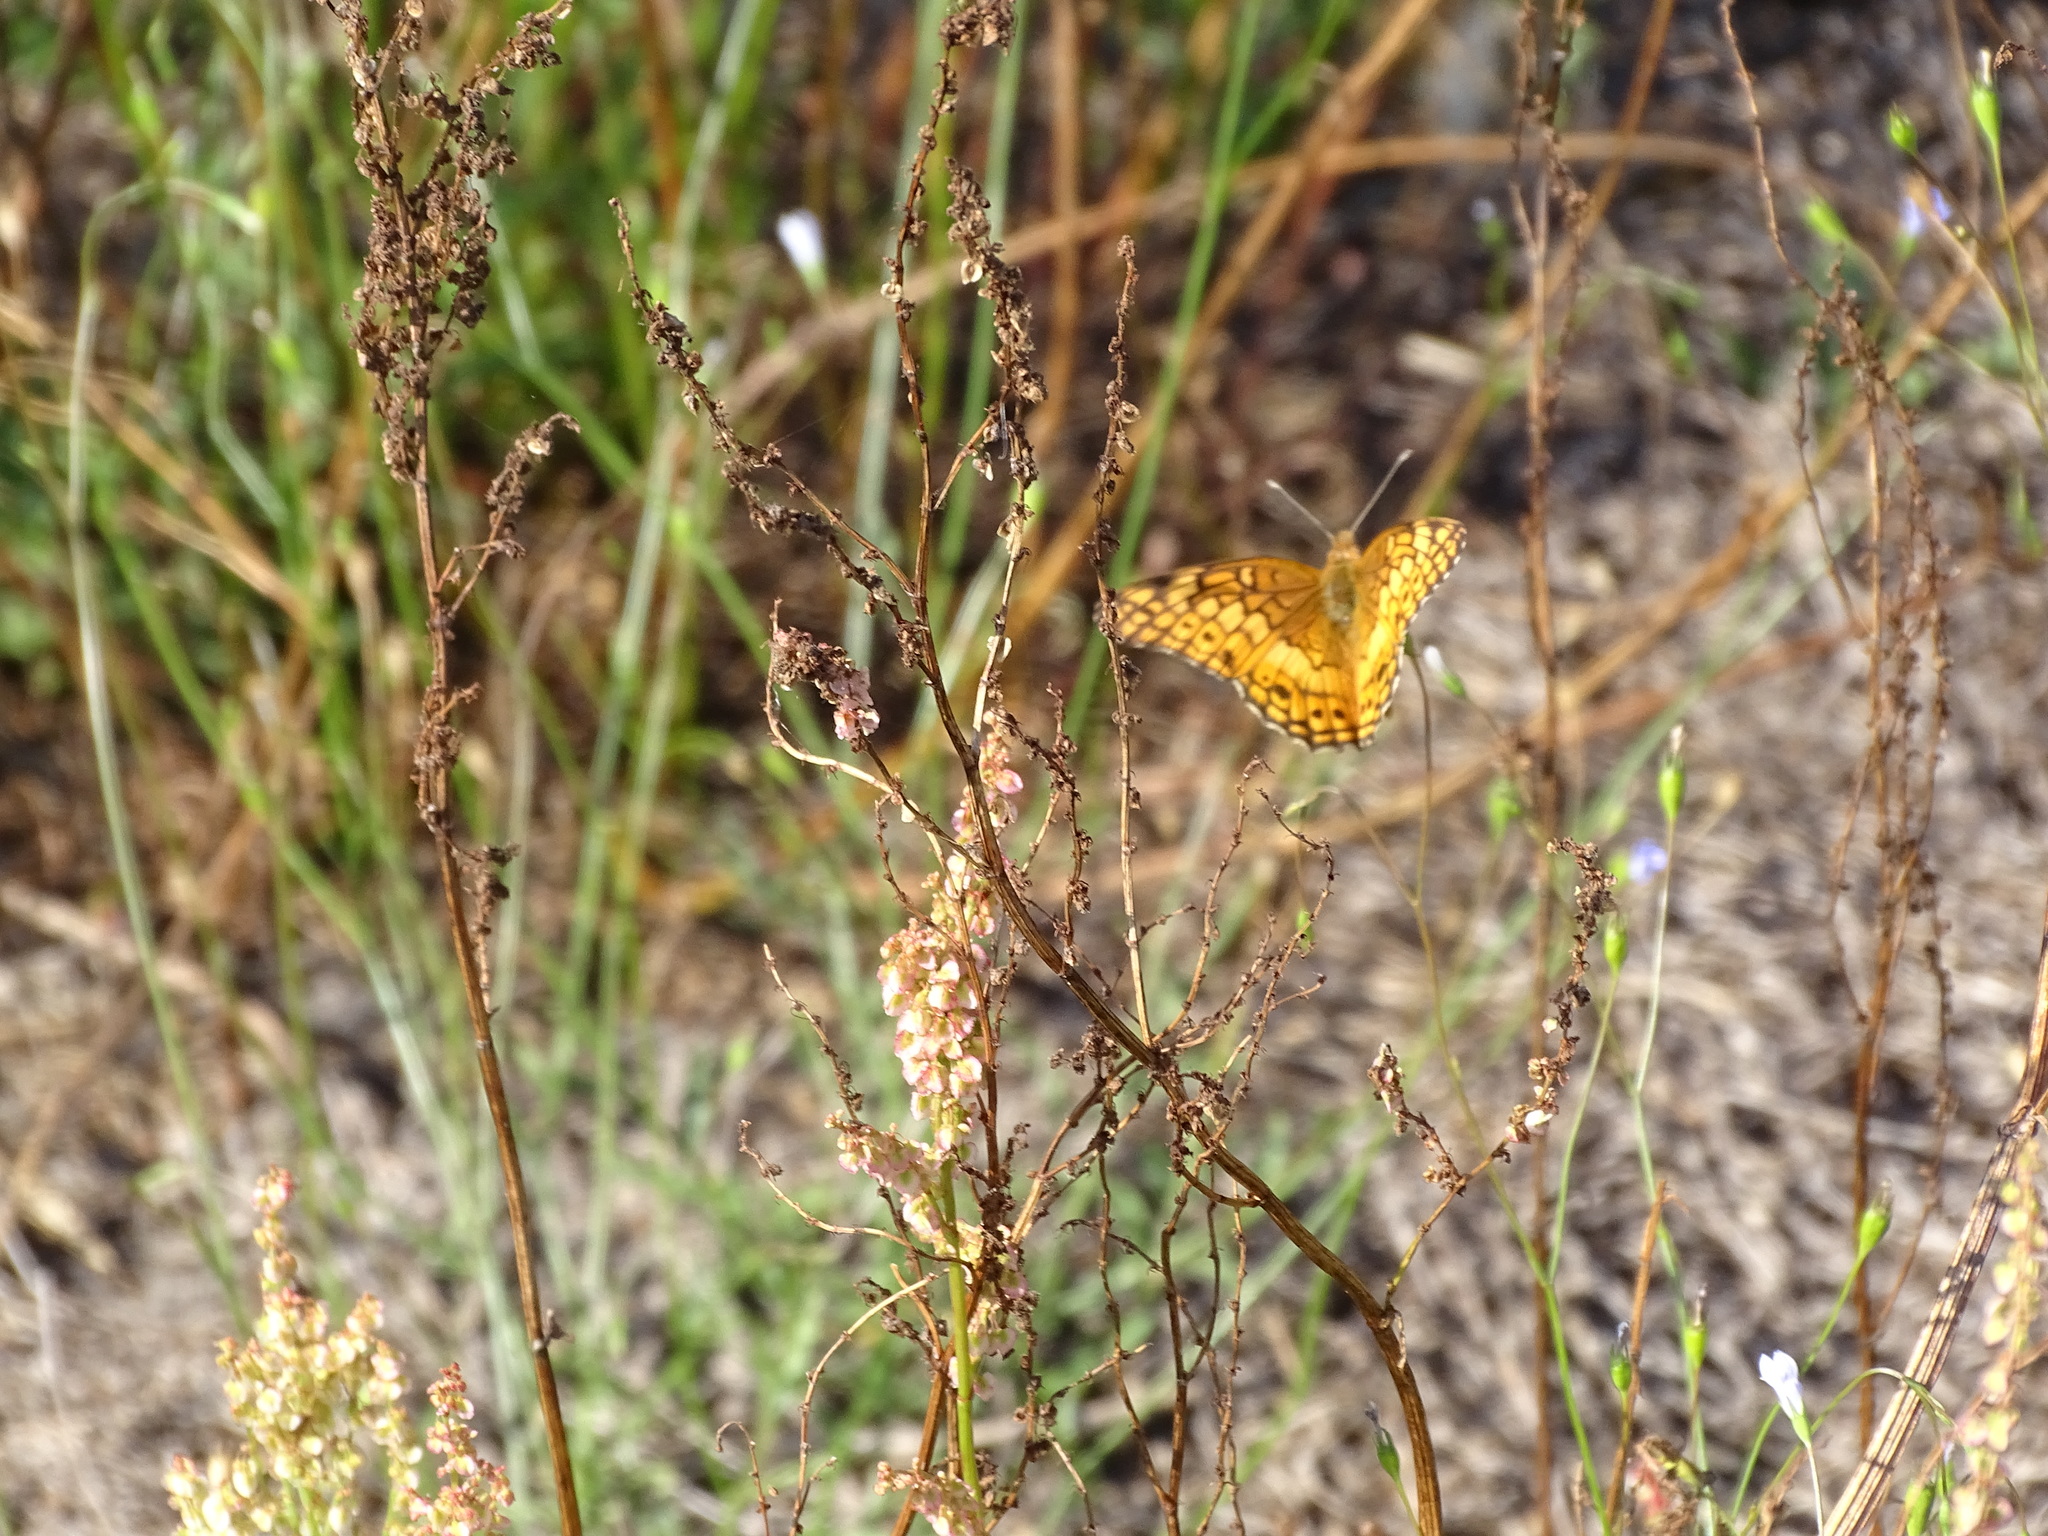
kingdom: Animalia
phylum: Arthropoda
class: Insecta
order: Lepidoptera
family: Nymphalidae
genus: Euptoieta
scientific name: Euptoieta claudia
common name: Variegated fritillary
